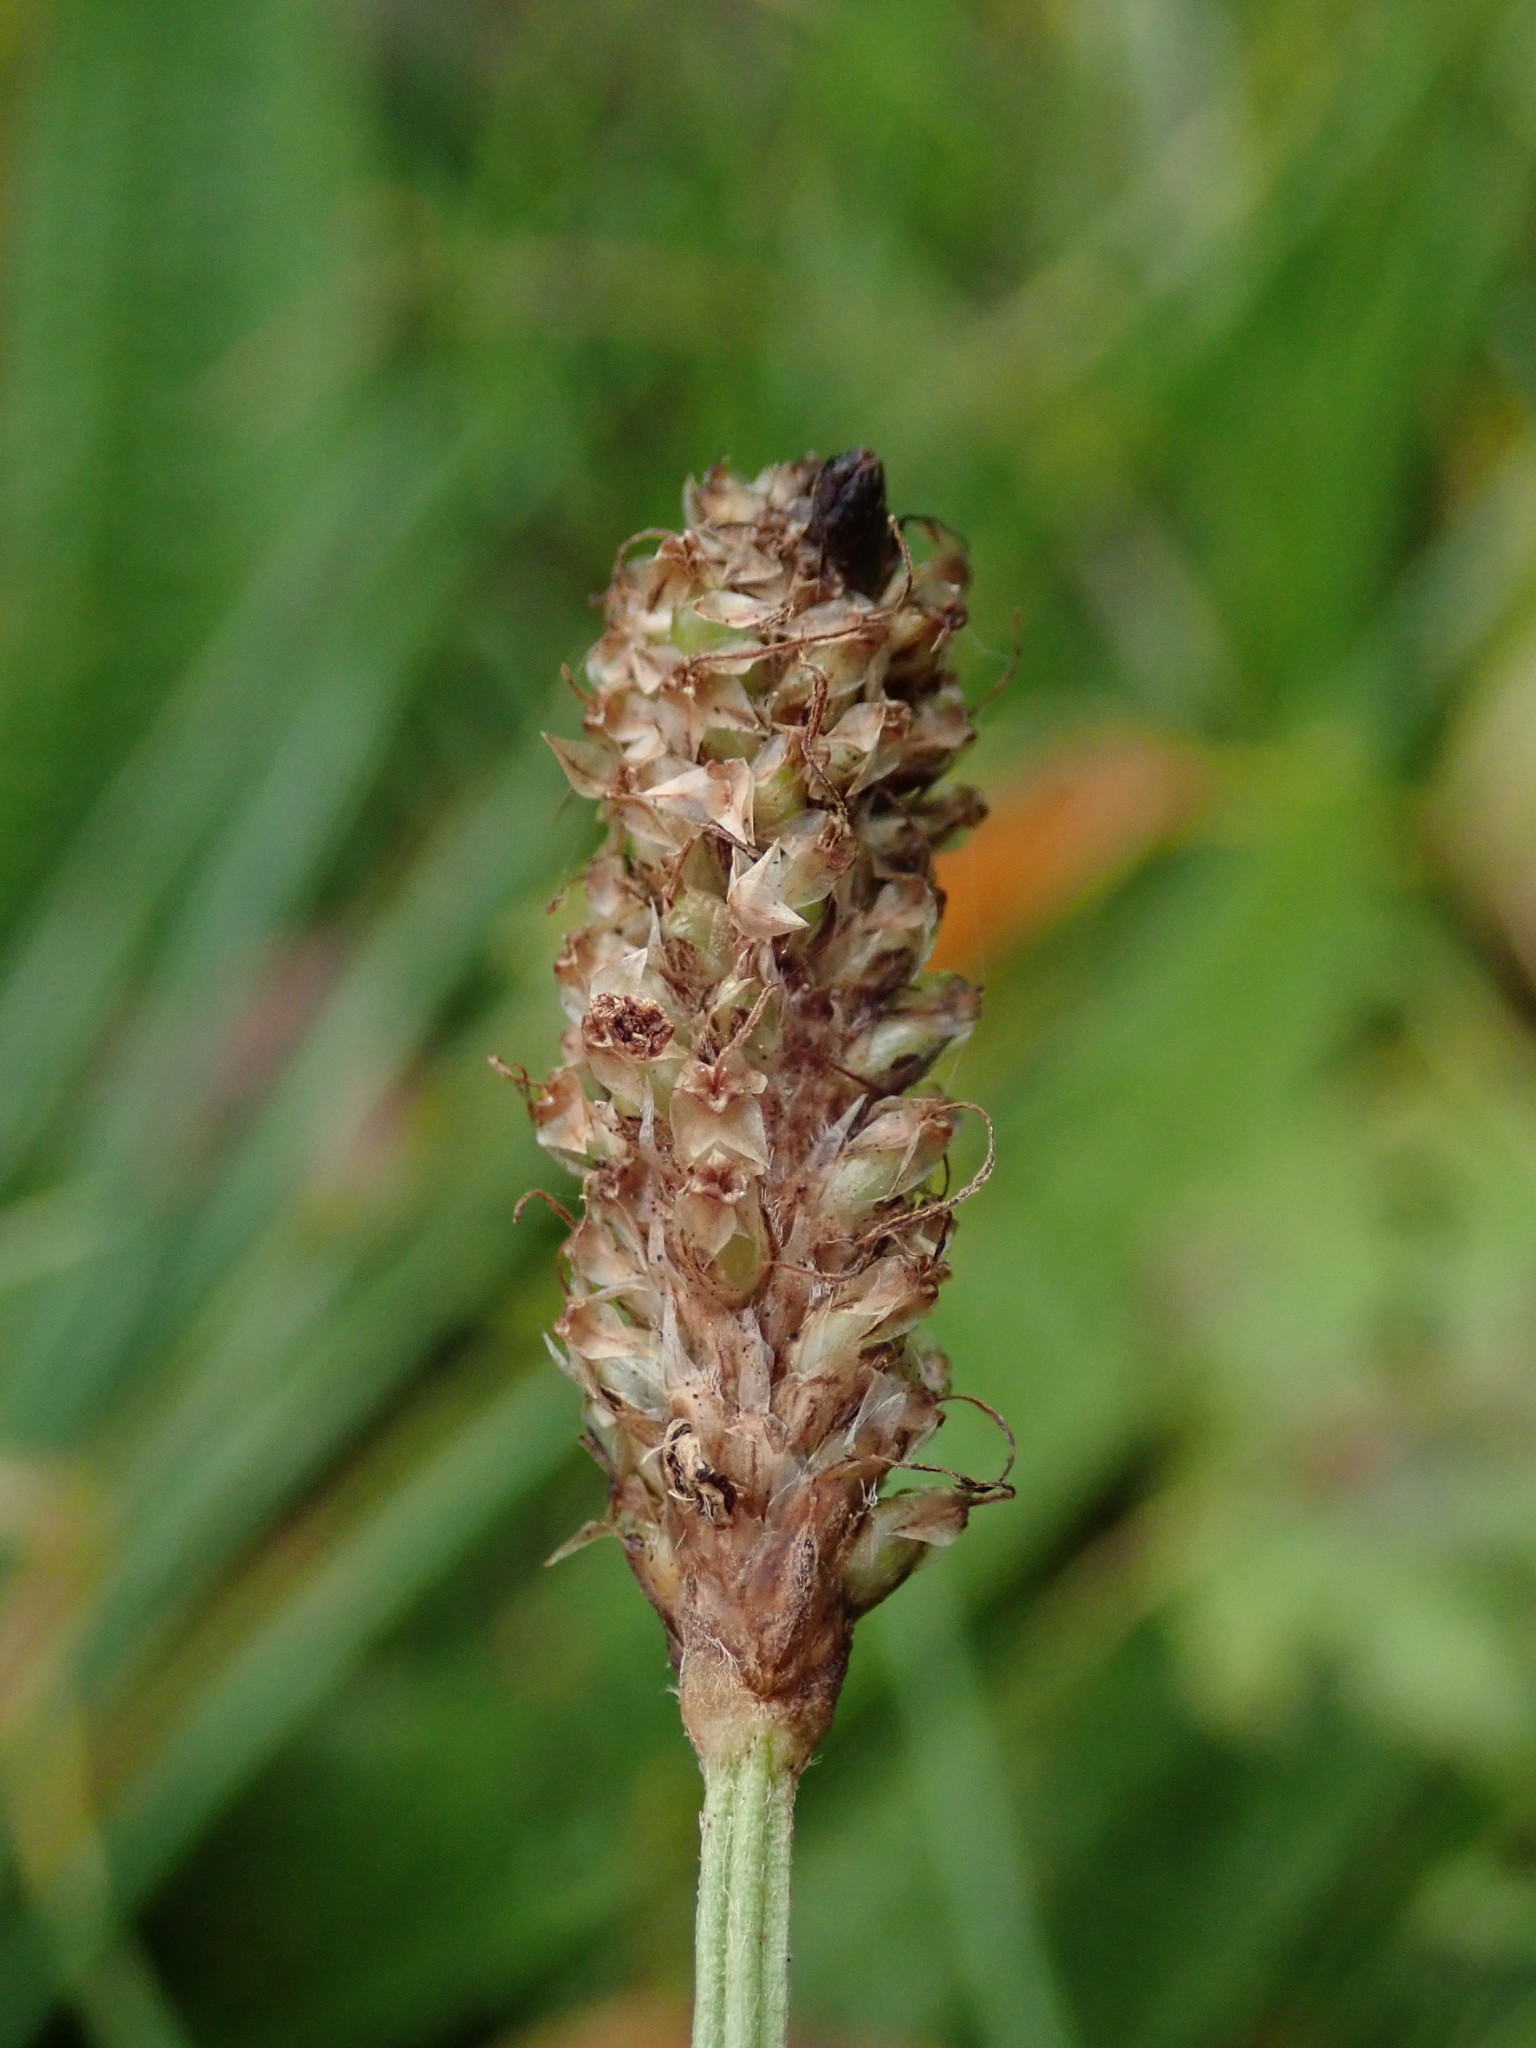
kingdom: Plantae
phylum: Tracheophyta
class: Magnoliopsida
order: Lamiales
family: Plantaginaceae
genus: Plantago
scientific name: Plantago lanceolata
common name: Ribwort plantain
